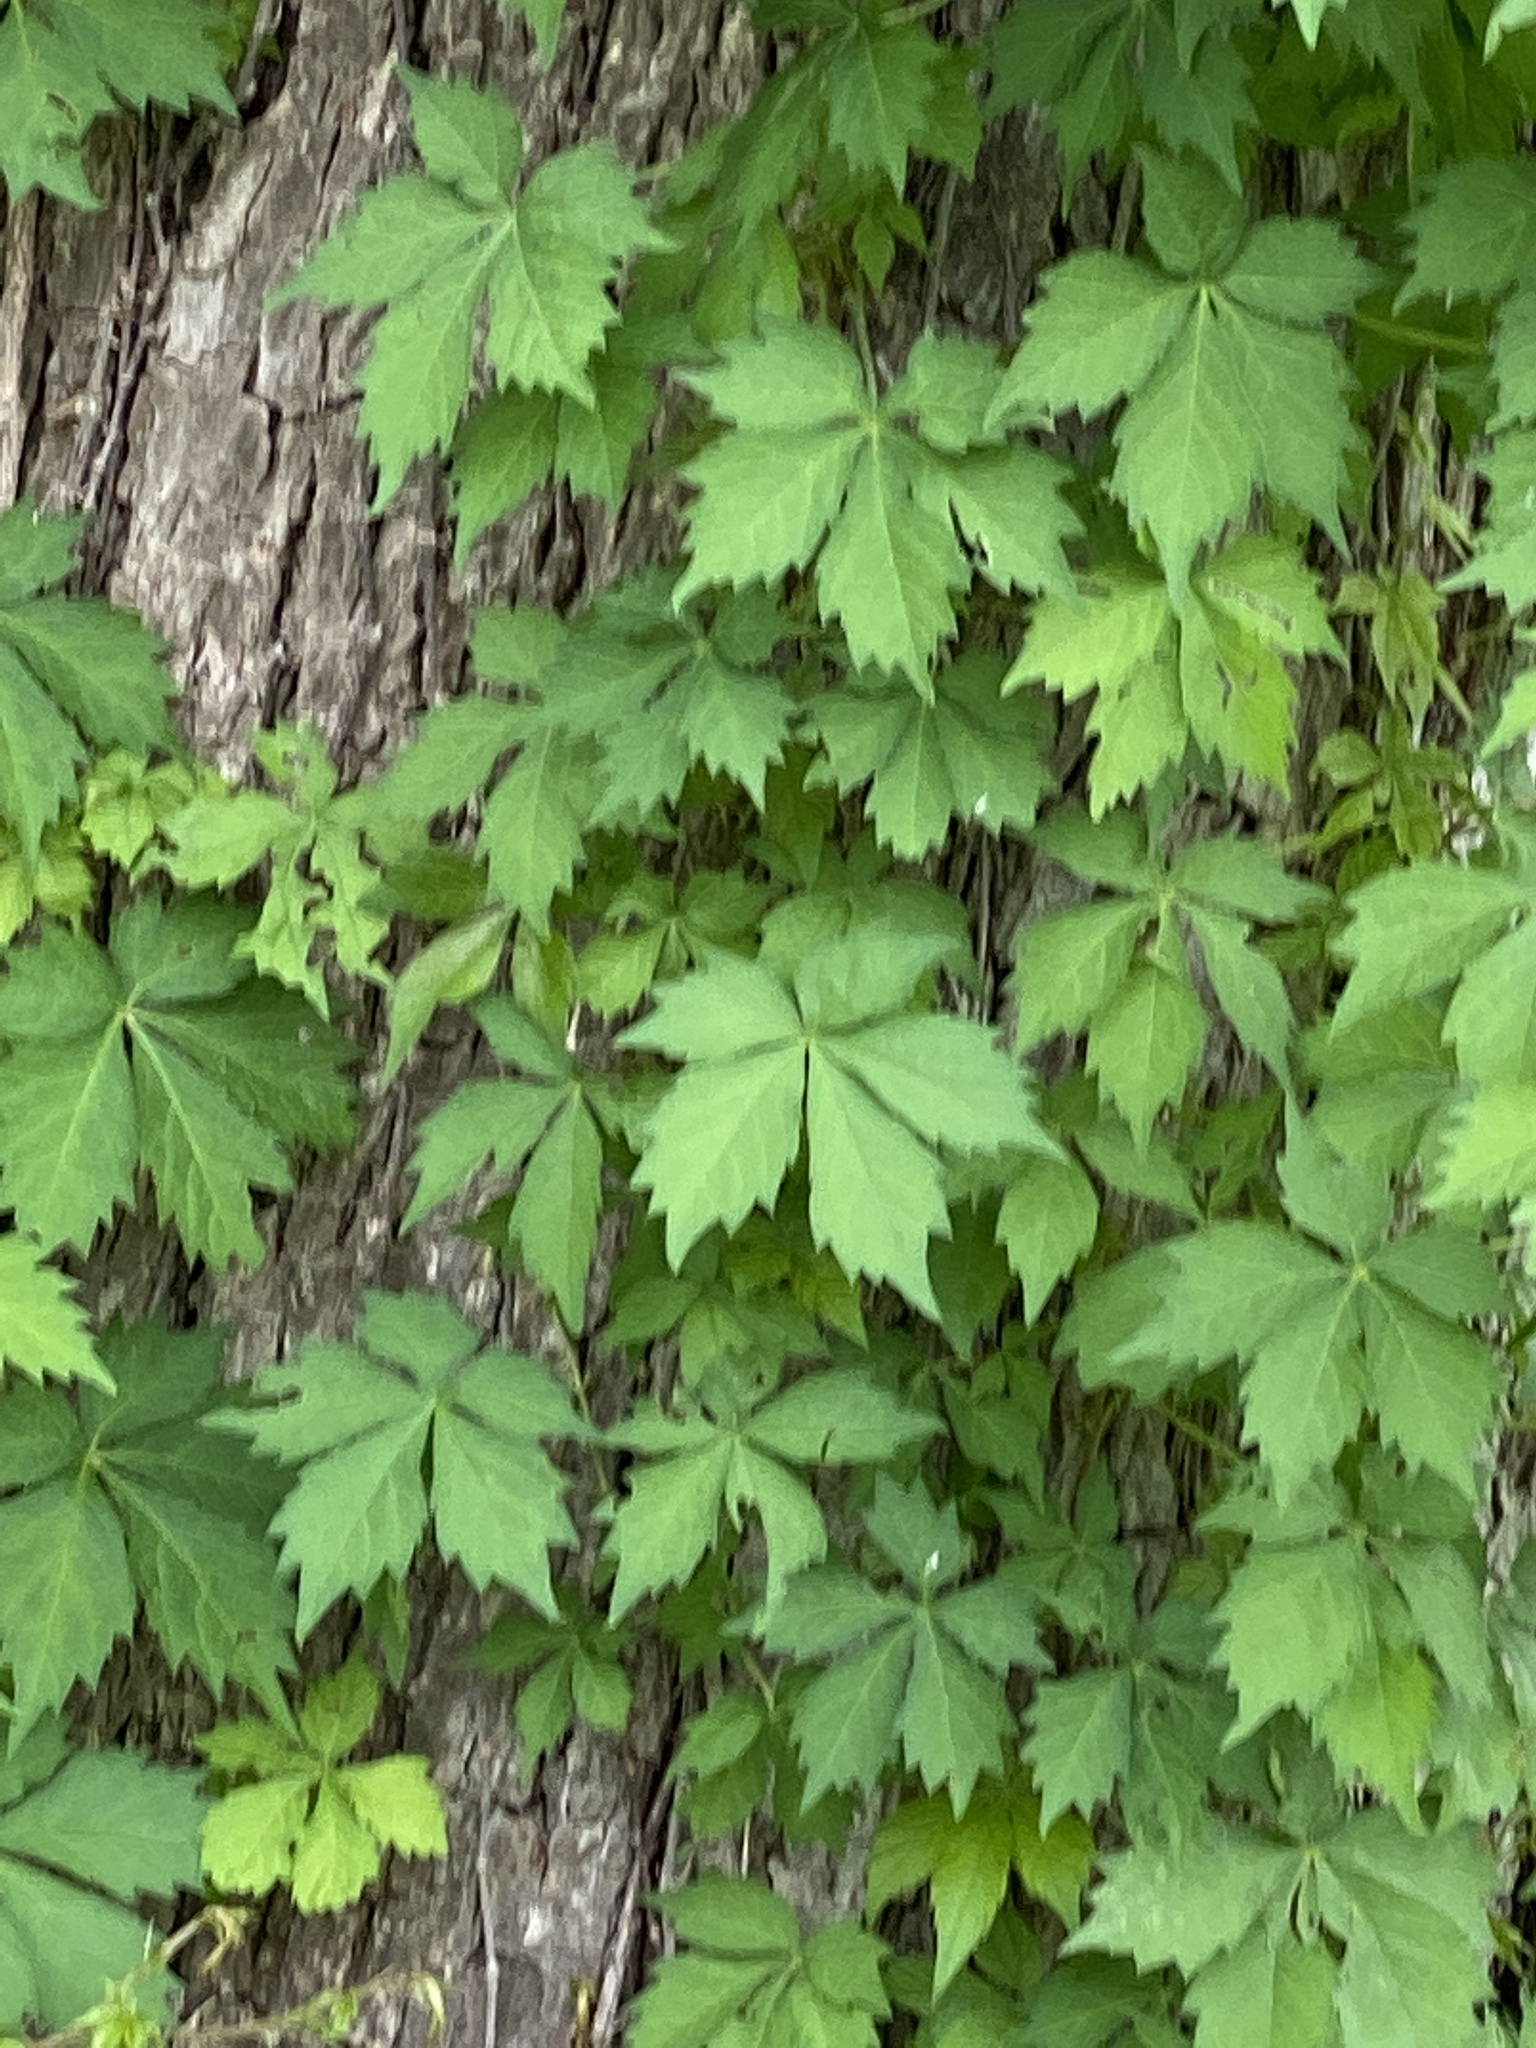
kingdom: Plantae
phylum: Tracheophyta
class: Magnoliopsida
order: Vitales
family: Vitaceae
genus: Parthenocissus
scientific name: Parthenocissus quinquefolia
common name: Virginia-creeper
